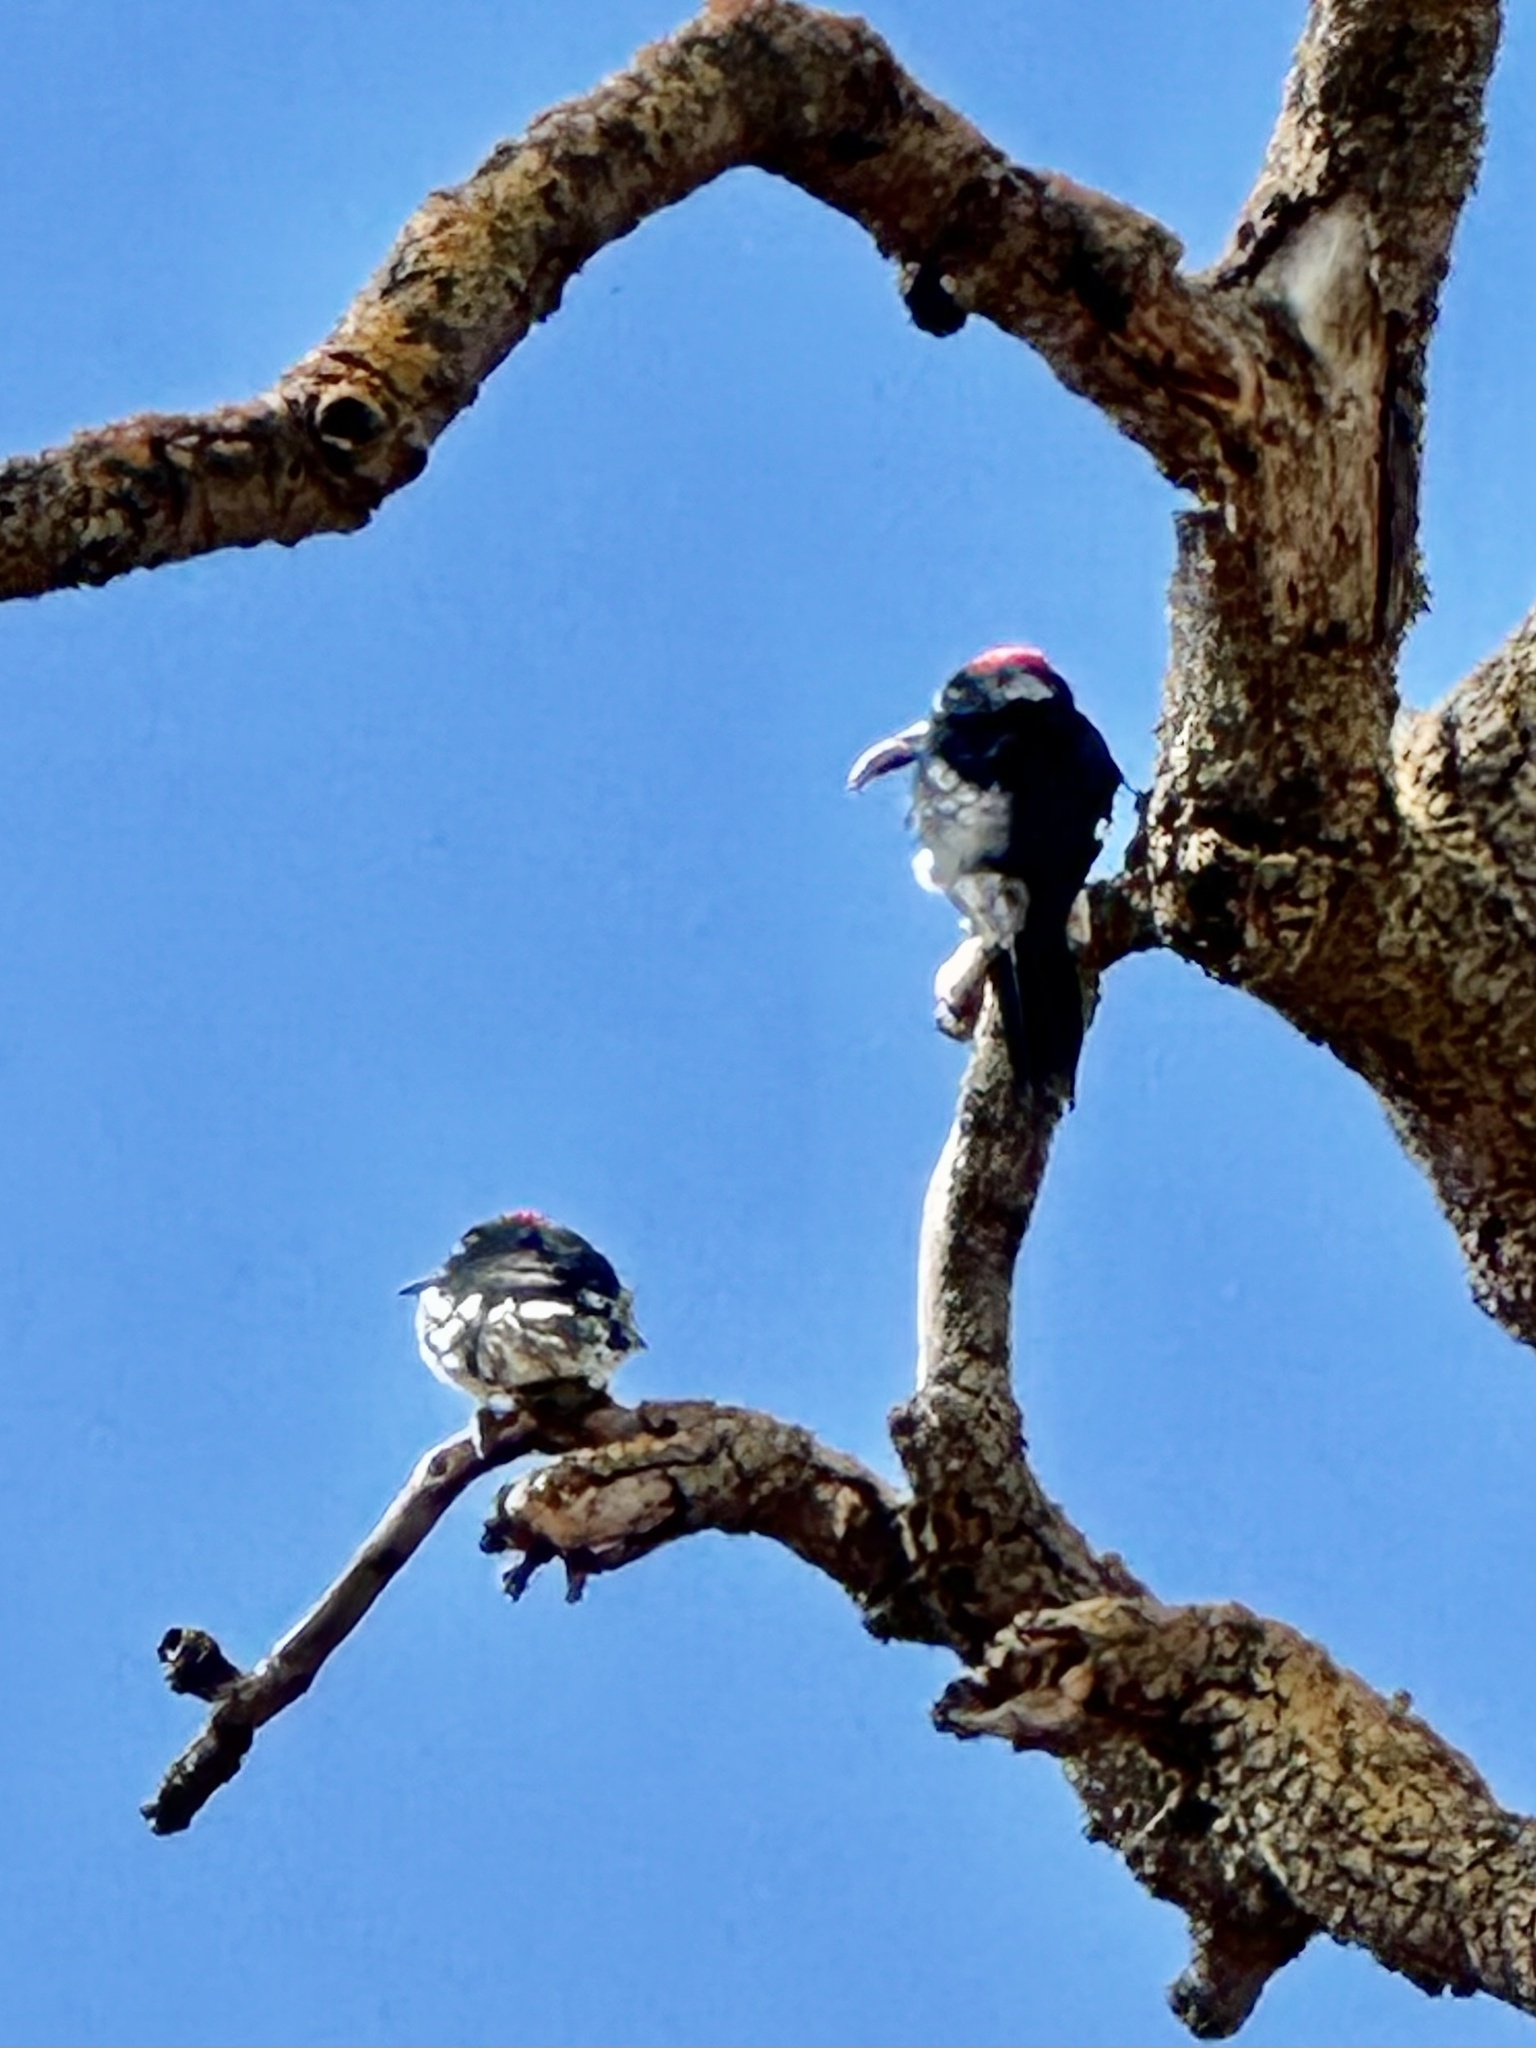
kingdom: Animalia
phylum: Chordata
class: Aves
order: Piciformes
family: Picidae
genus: Melanerpes
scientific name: Melanerpes formicivorus
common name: Acorn woodpecker
